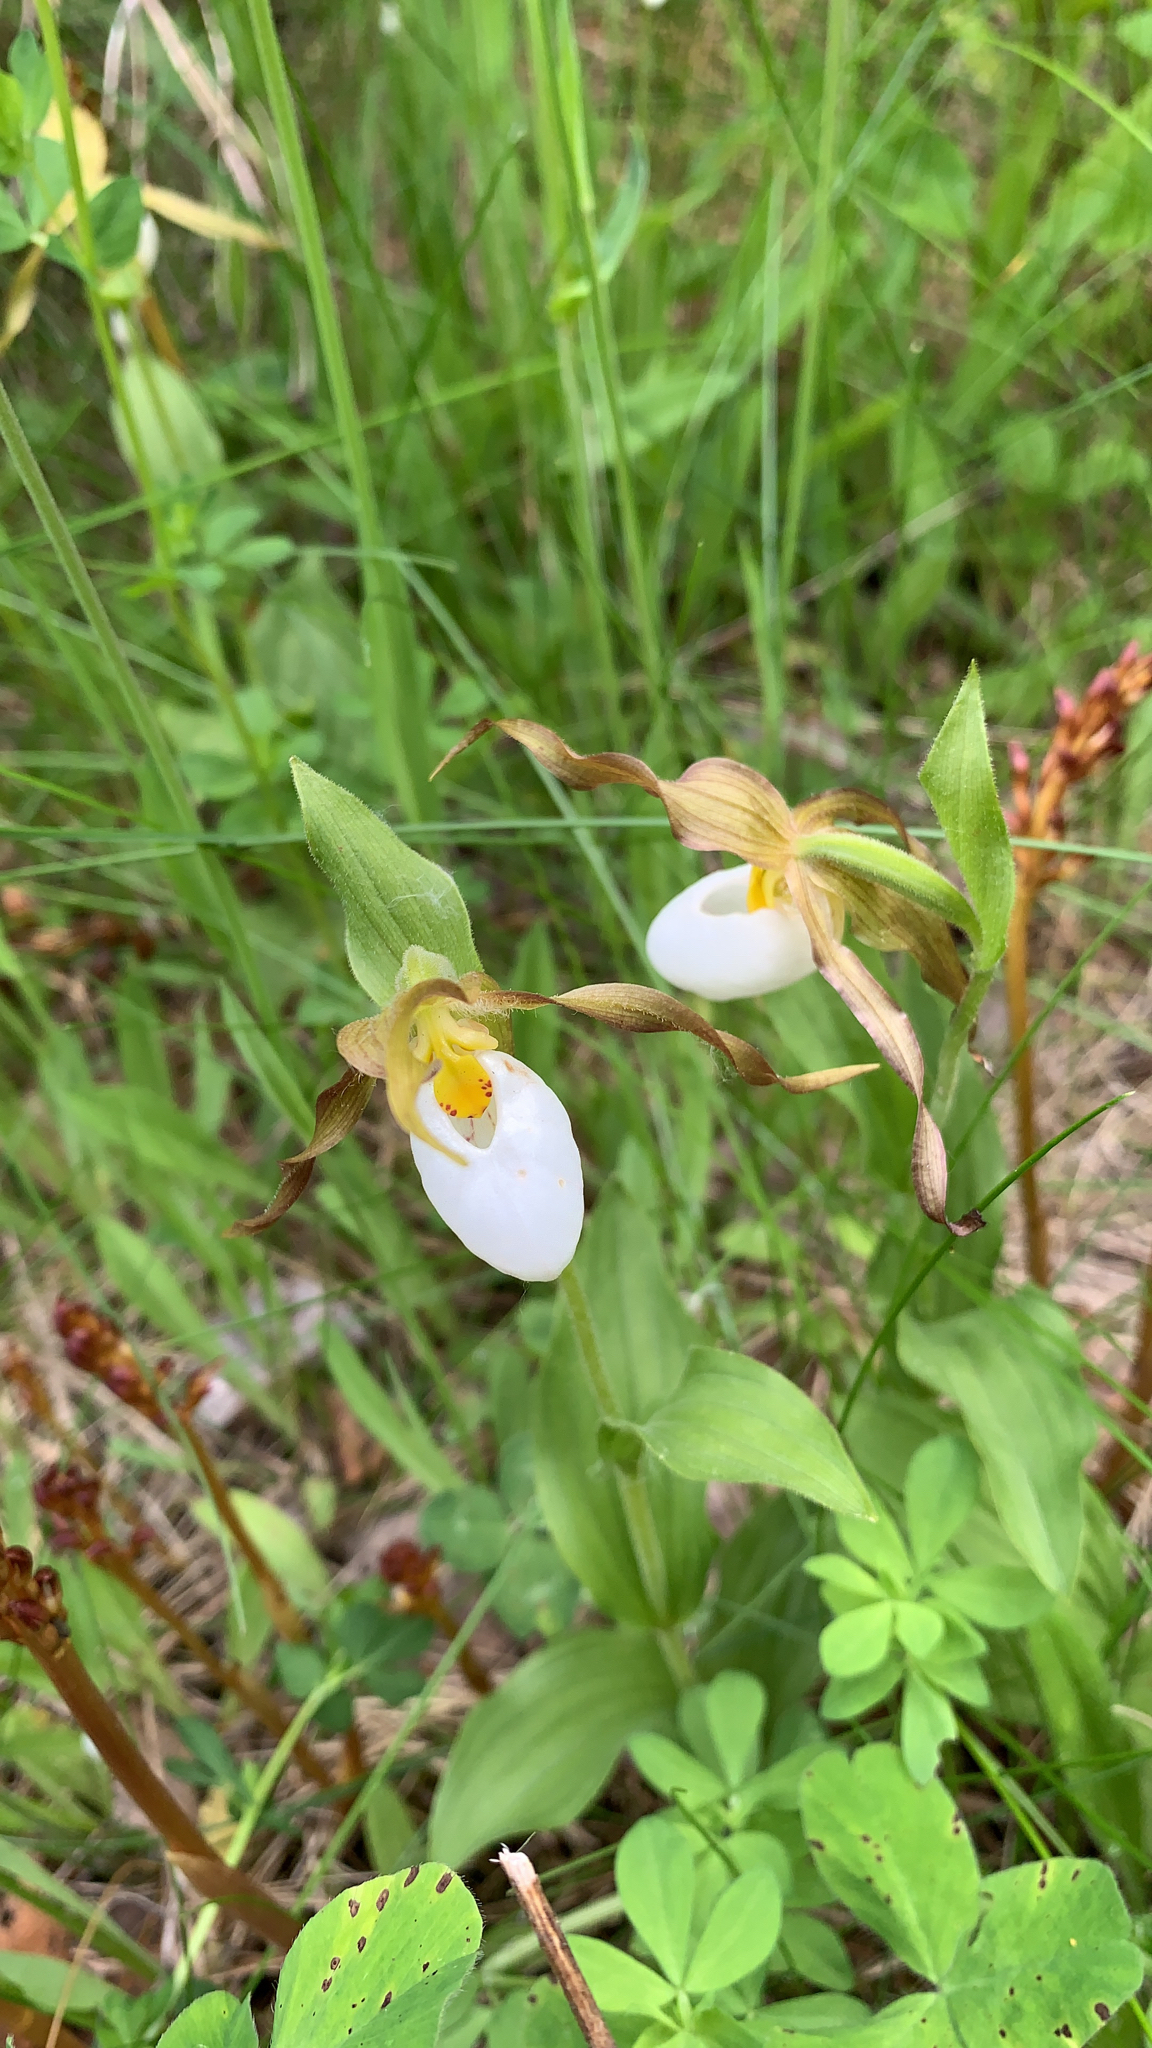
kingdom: Plantae
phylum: Tracheophyta
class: Liliopsida
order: Asparagales
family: Orchidaceae
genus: Cypripedium
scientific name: Cypripedium montanum
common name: Mountain lady's-slipper
